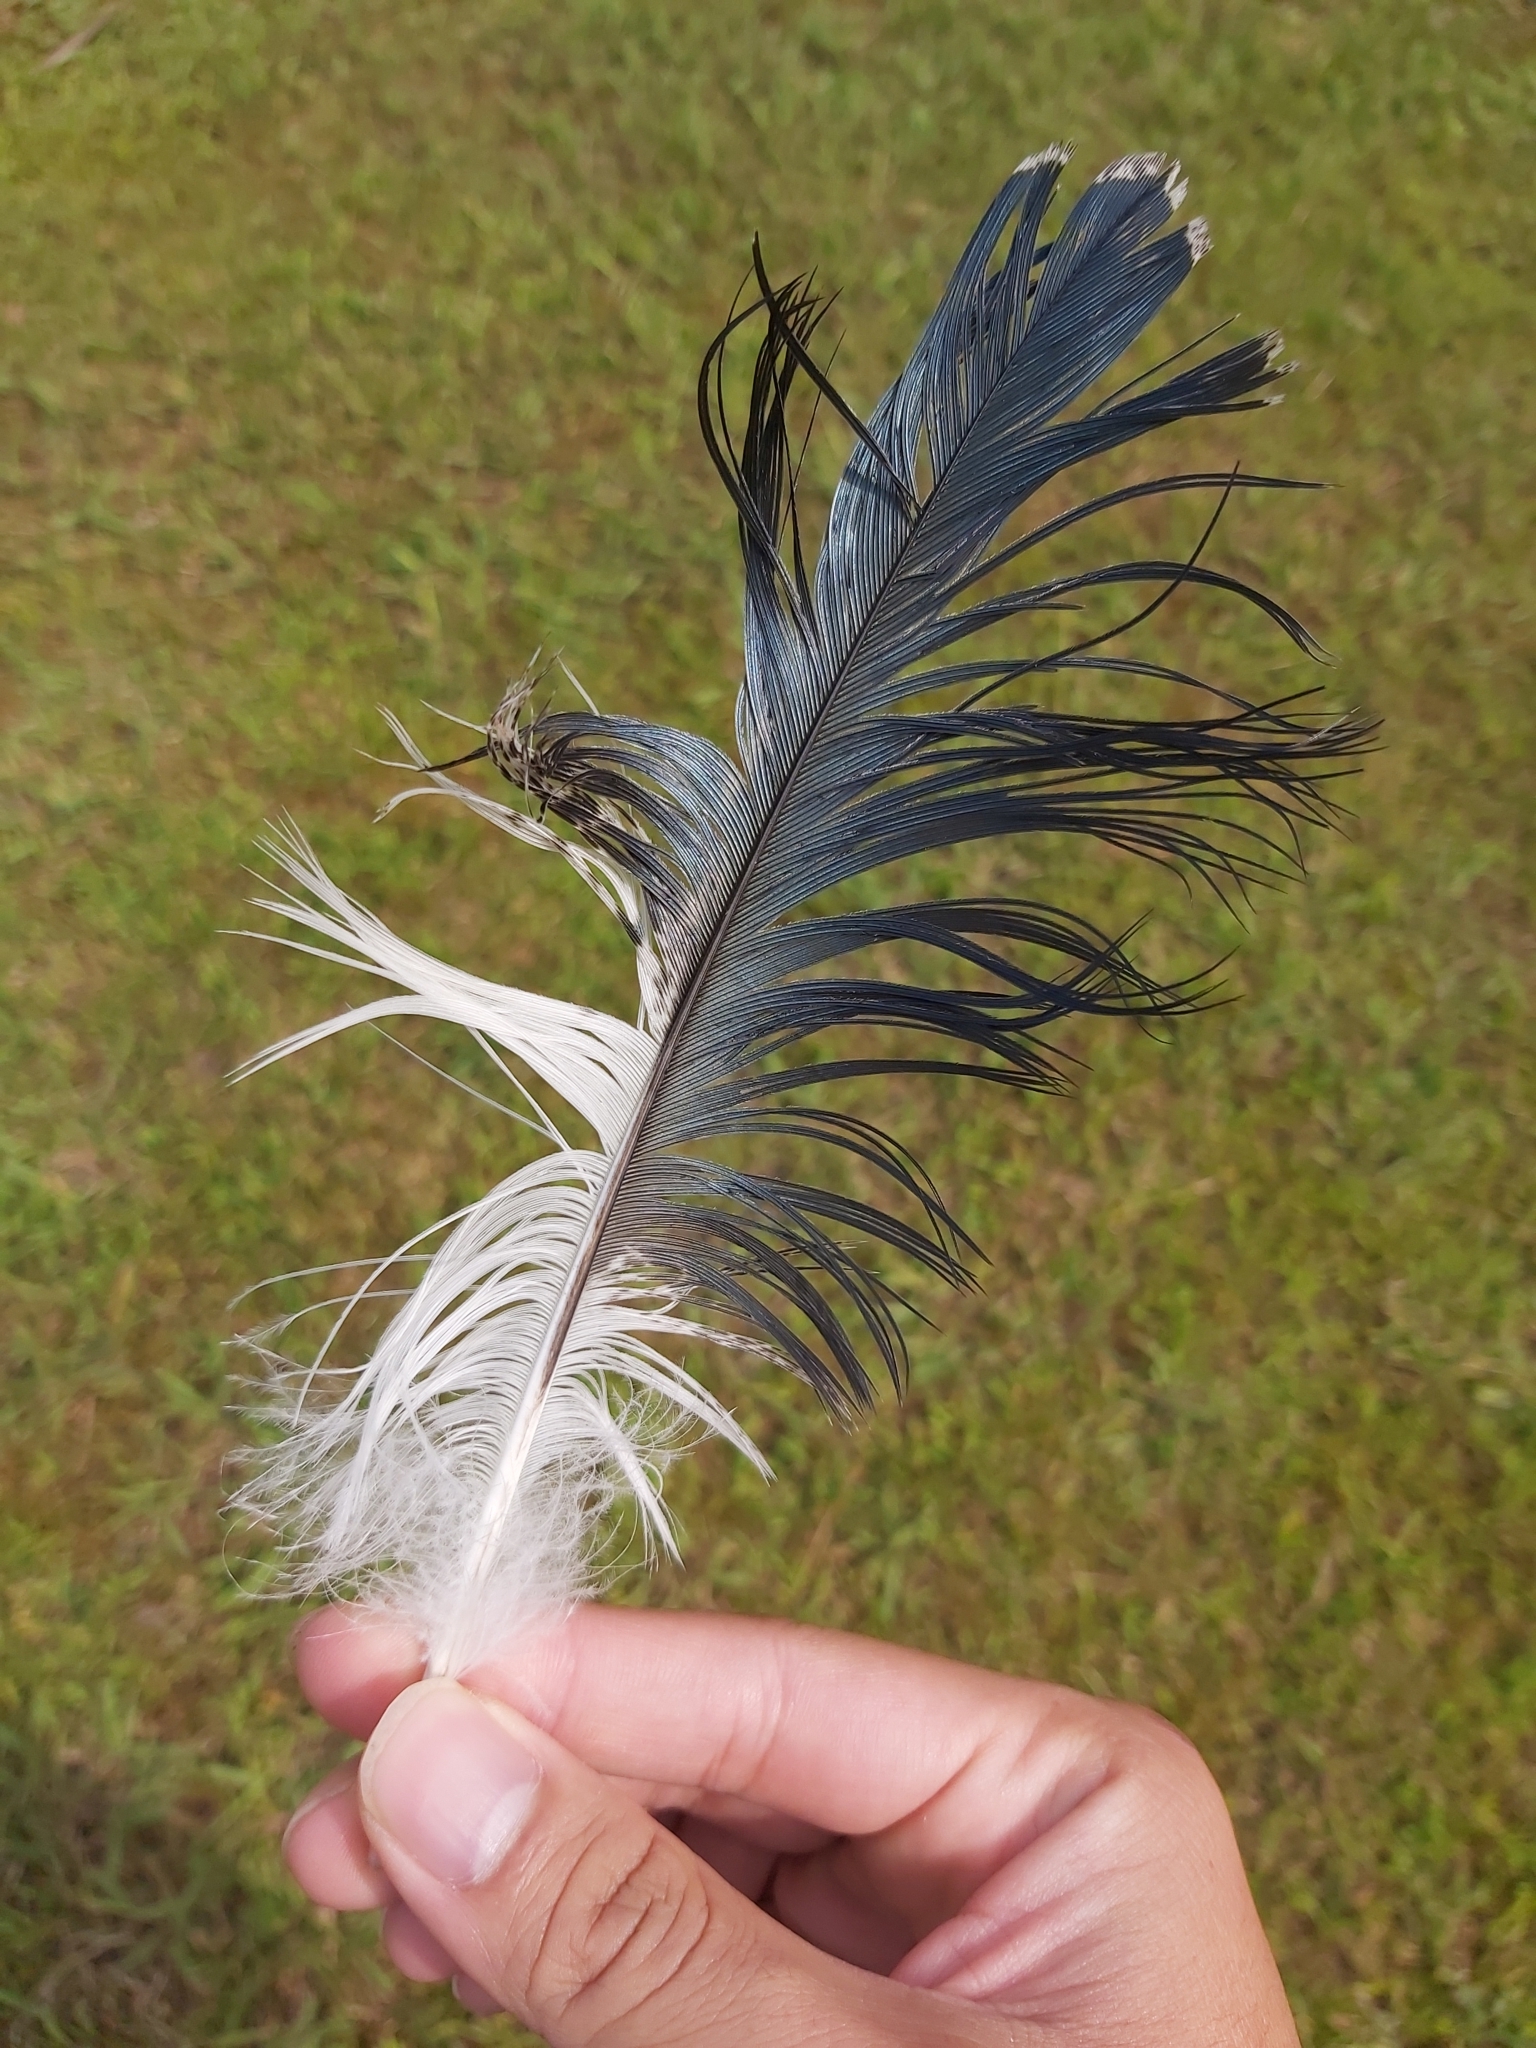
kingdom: Animalia
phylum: Chordata
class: Aves
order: Pelecaniformes
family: Threskiornithidae
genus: Threskiornis
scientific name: Threskiornis molucca
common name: Australian white ibis
